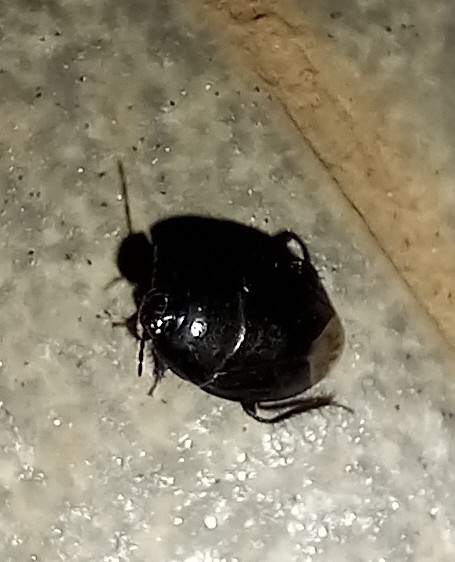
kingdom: Animalia
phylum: Arthropoda
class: Insecta
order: Hemiptera
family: Cydnidae
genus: Macroscytus
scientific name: Macroscytus brunneus
